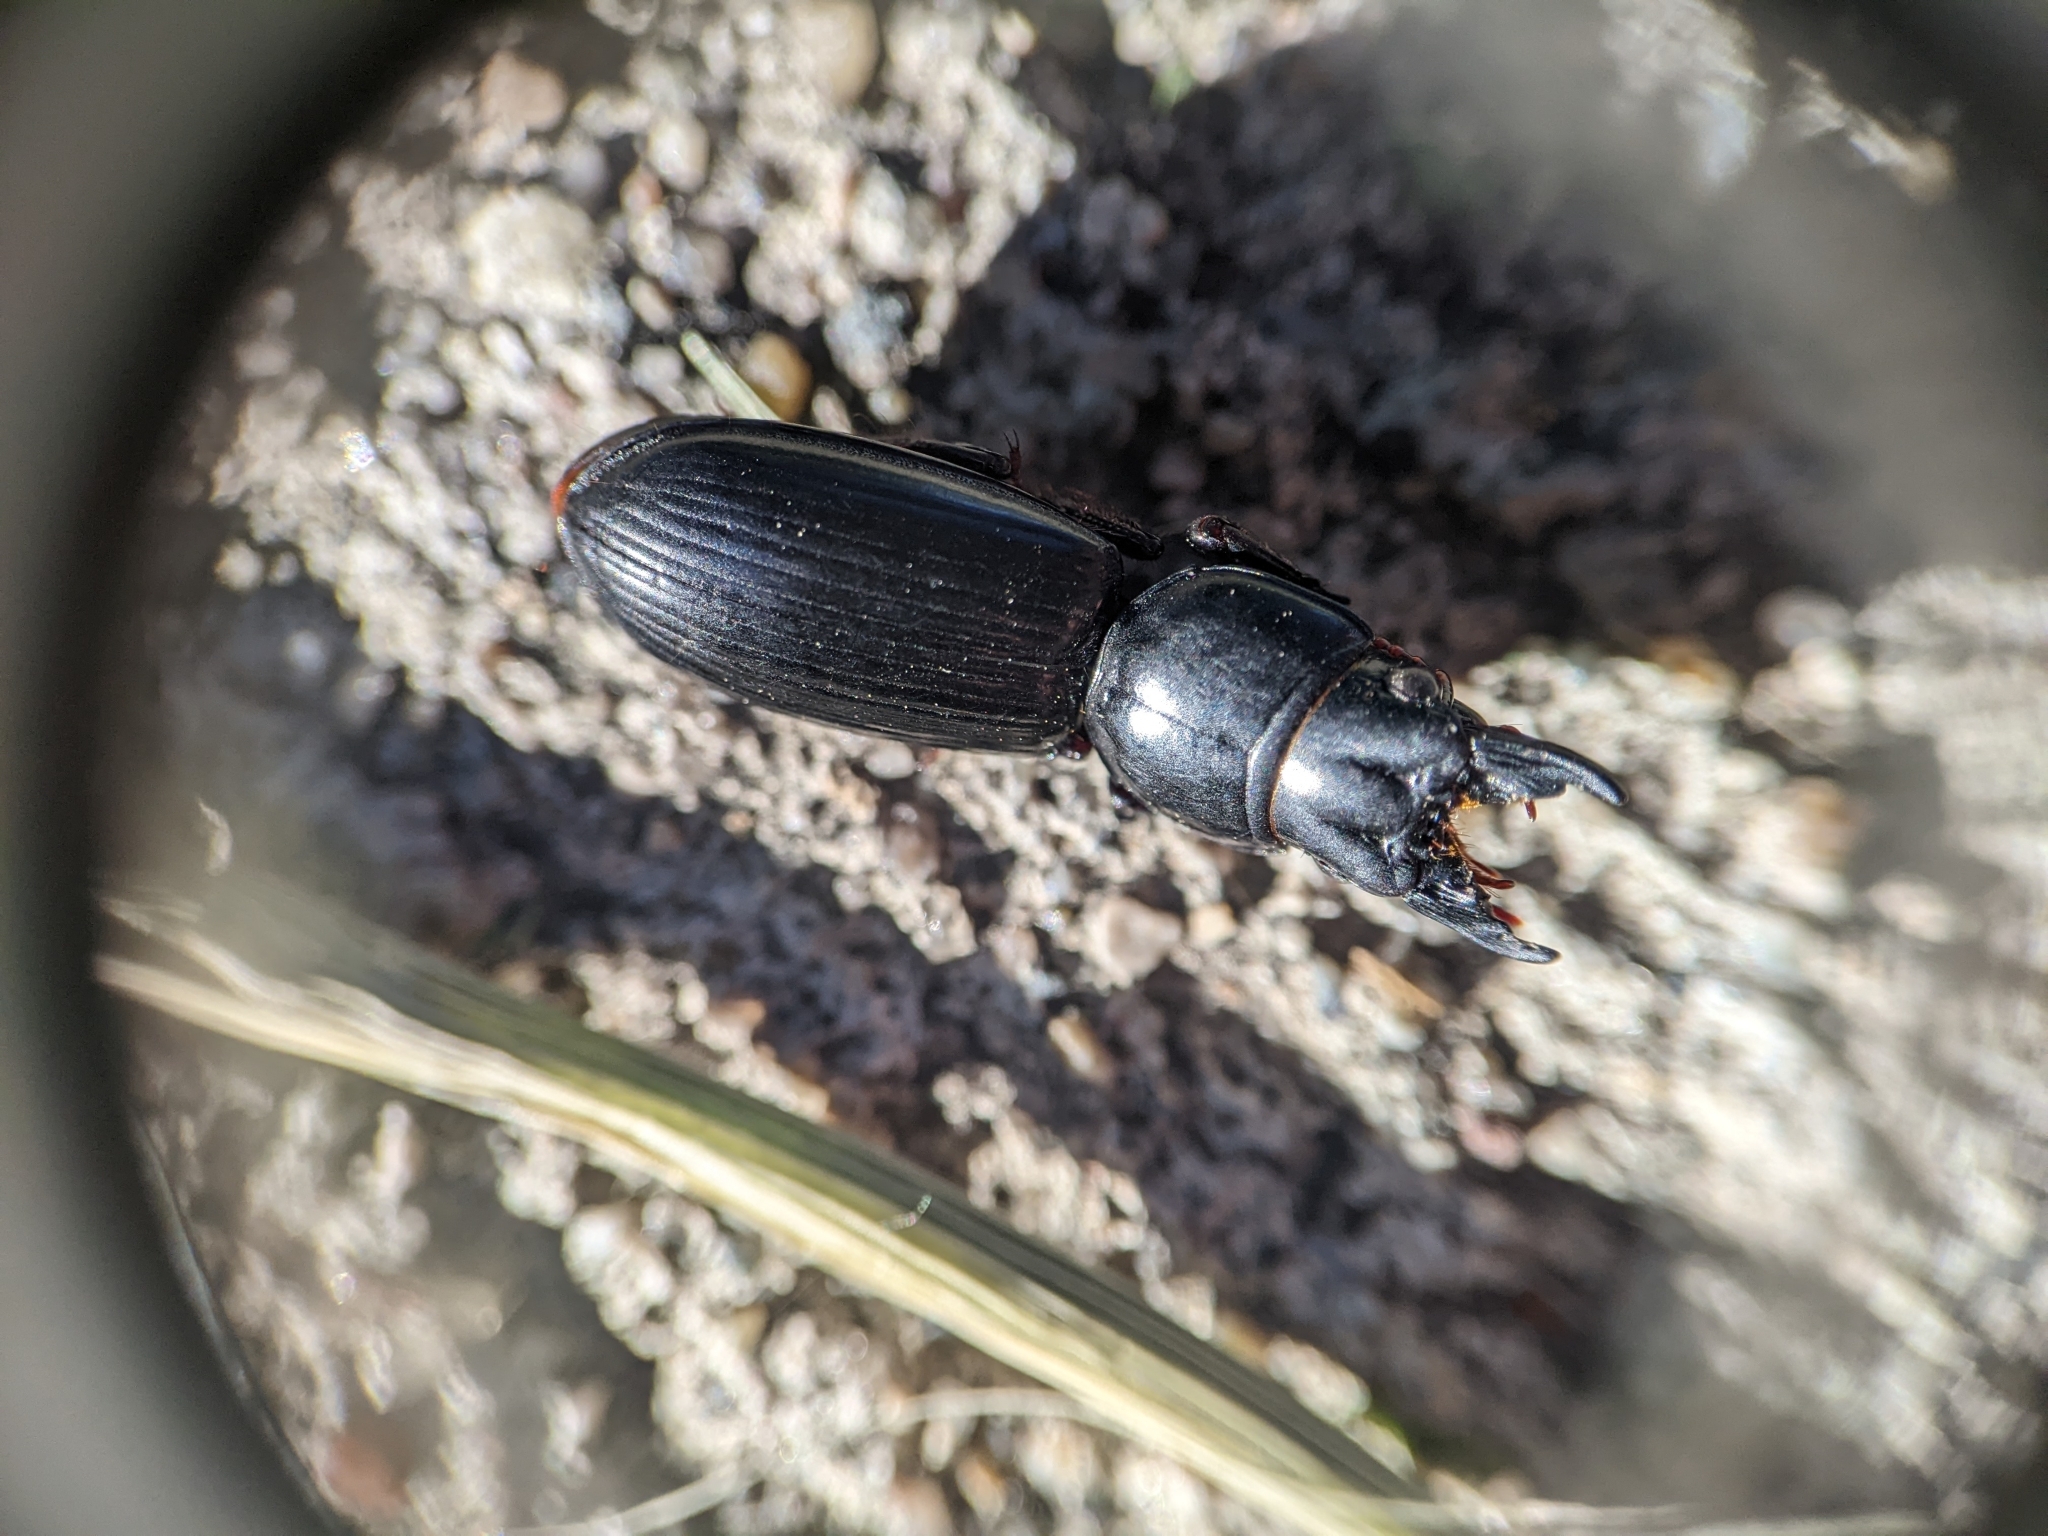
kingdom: Animalia
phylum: Arthropoda
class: Insecta
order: Coleoptera
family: Carabidae
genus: Scarites
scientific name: Scarites subterraneus
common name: Big-headed ground beetle
